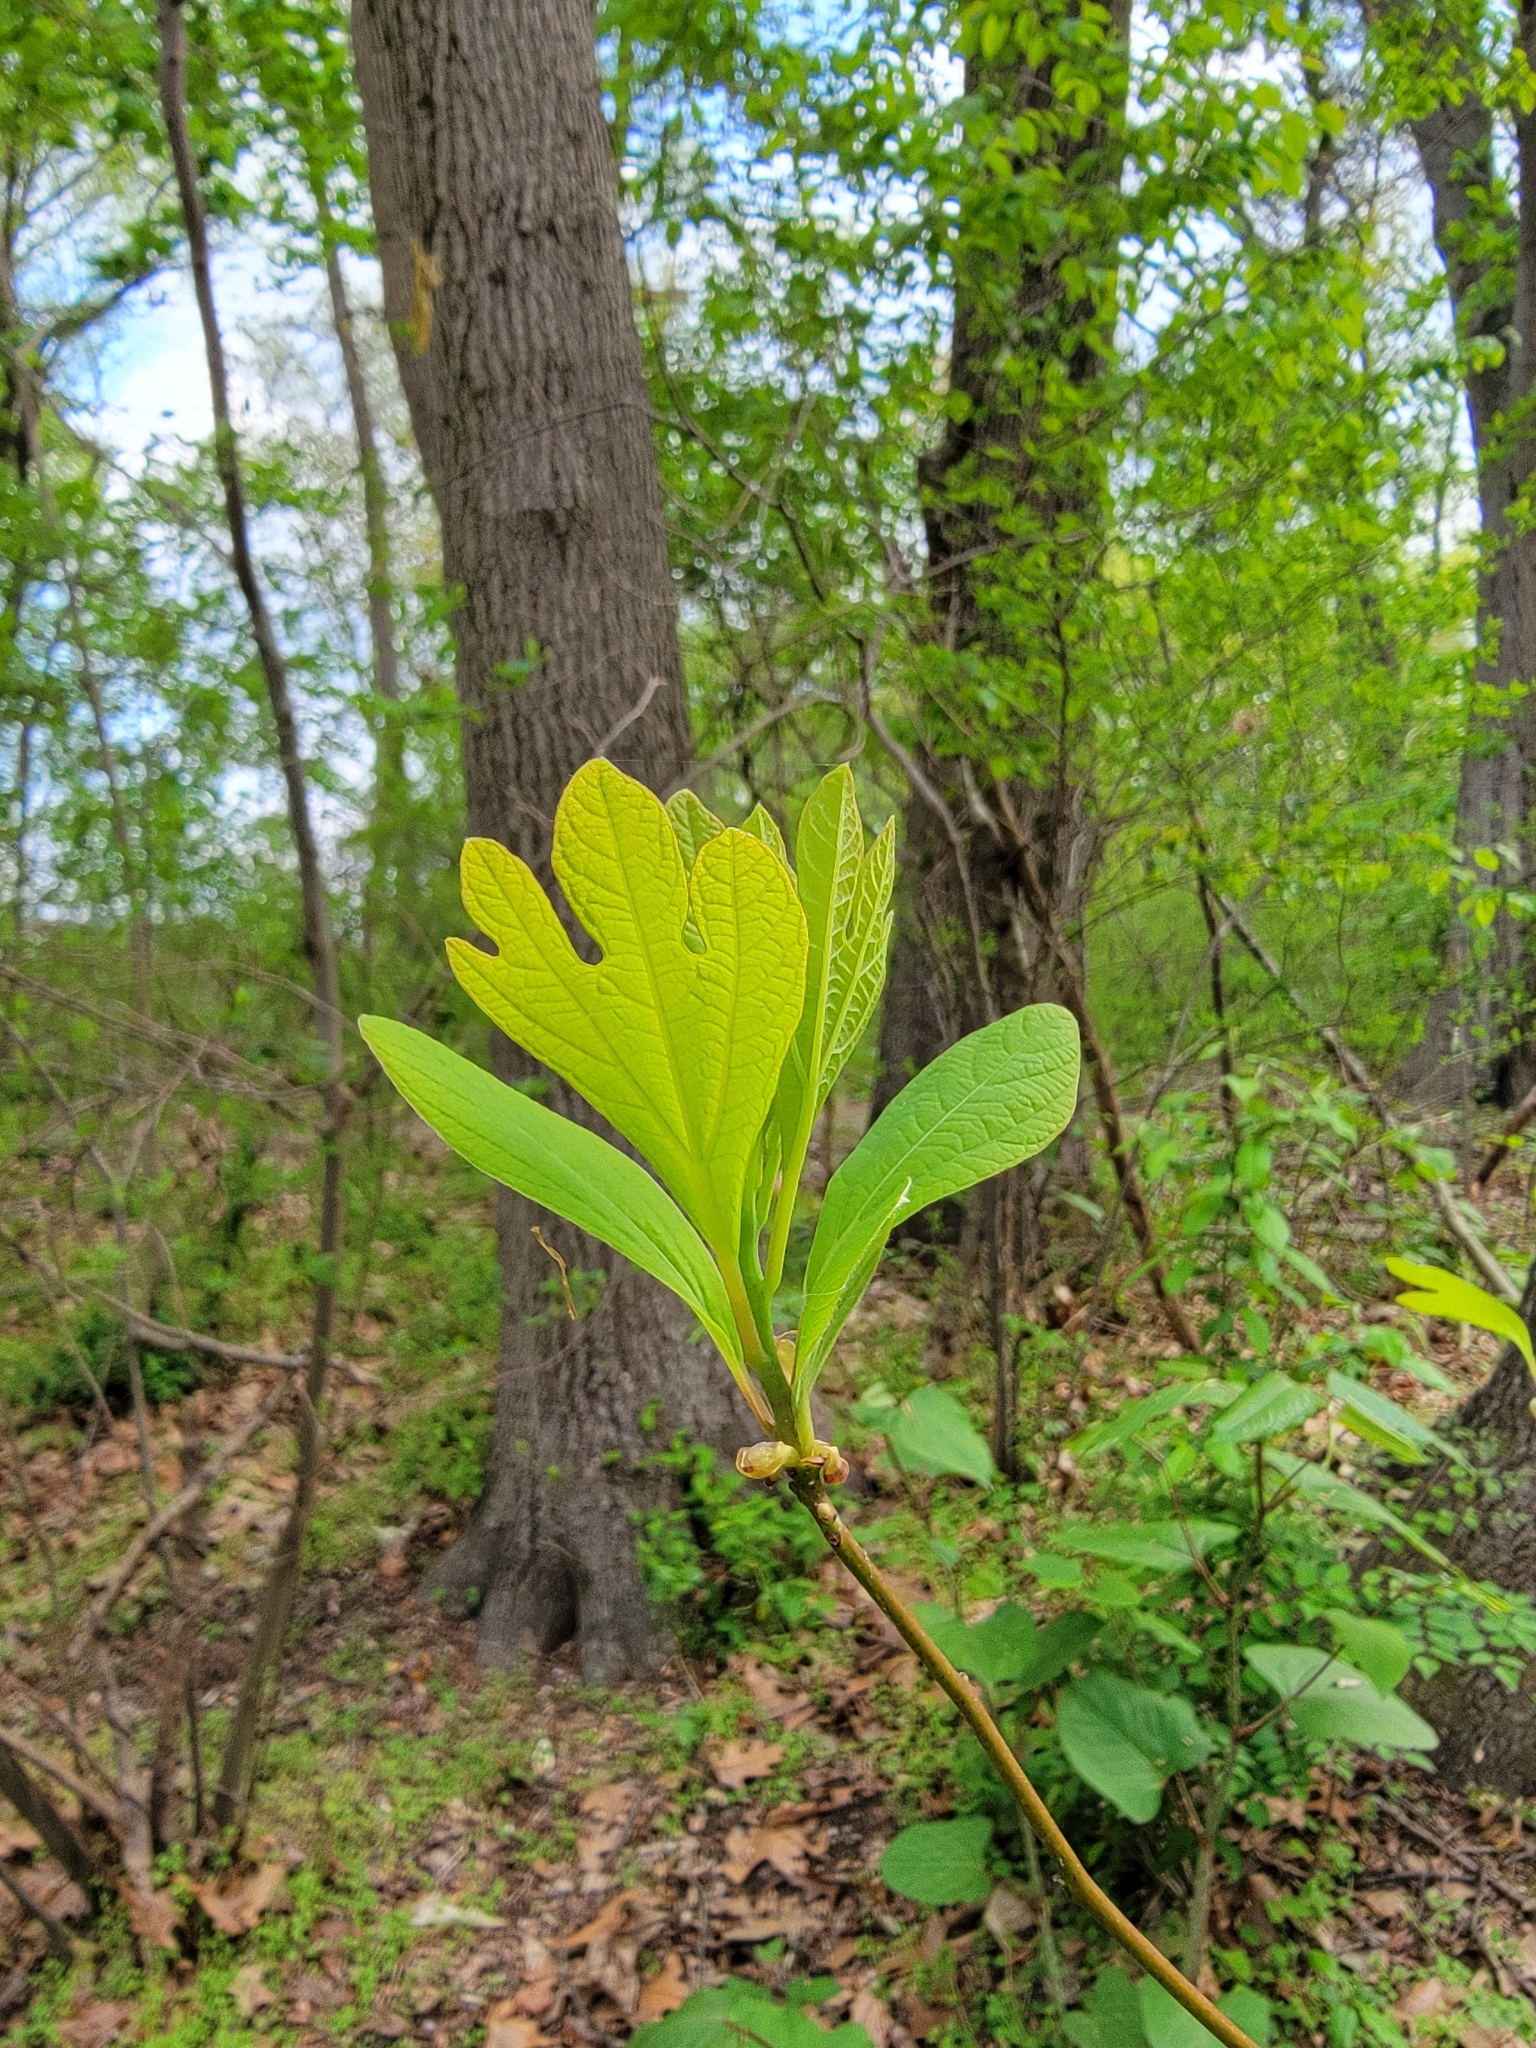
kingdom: Plantae
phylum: Tracheophyta
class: Magnoliopsida
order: Laurales
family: Lauraceae
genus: Sassafras
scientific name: Sassafras albidum
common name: Sassafras
